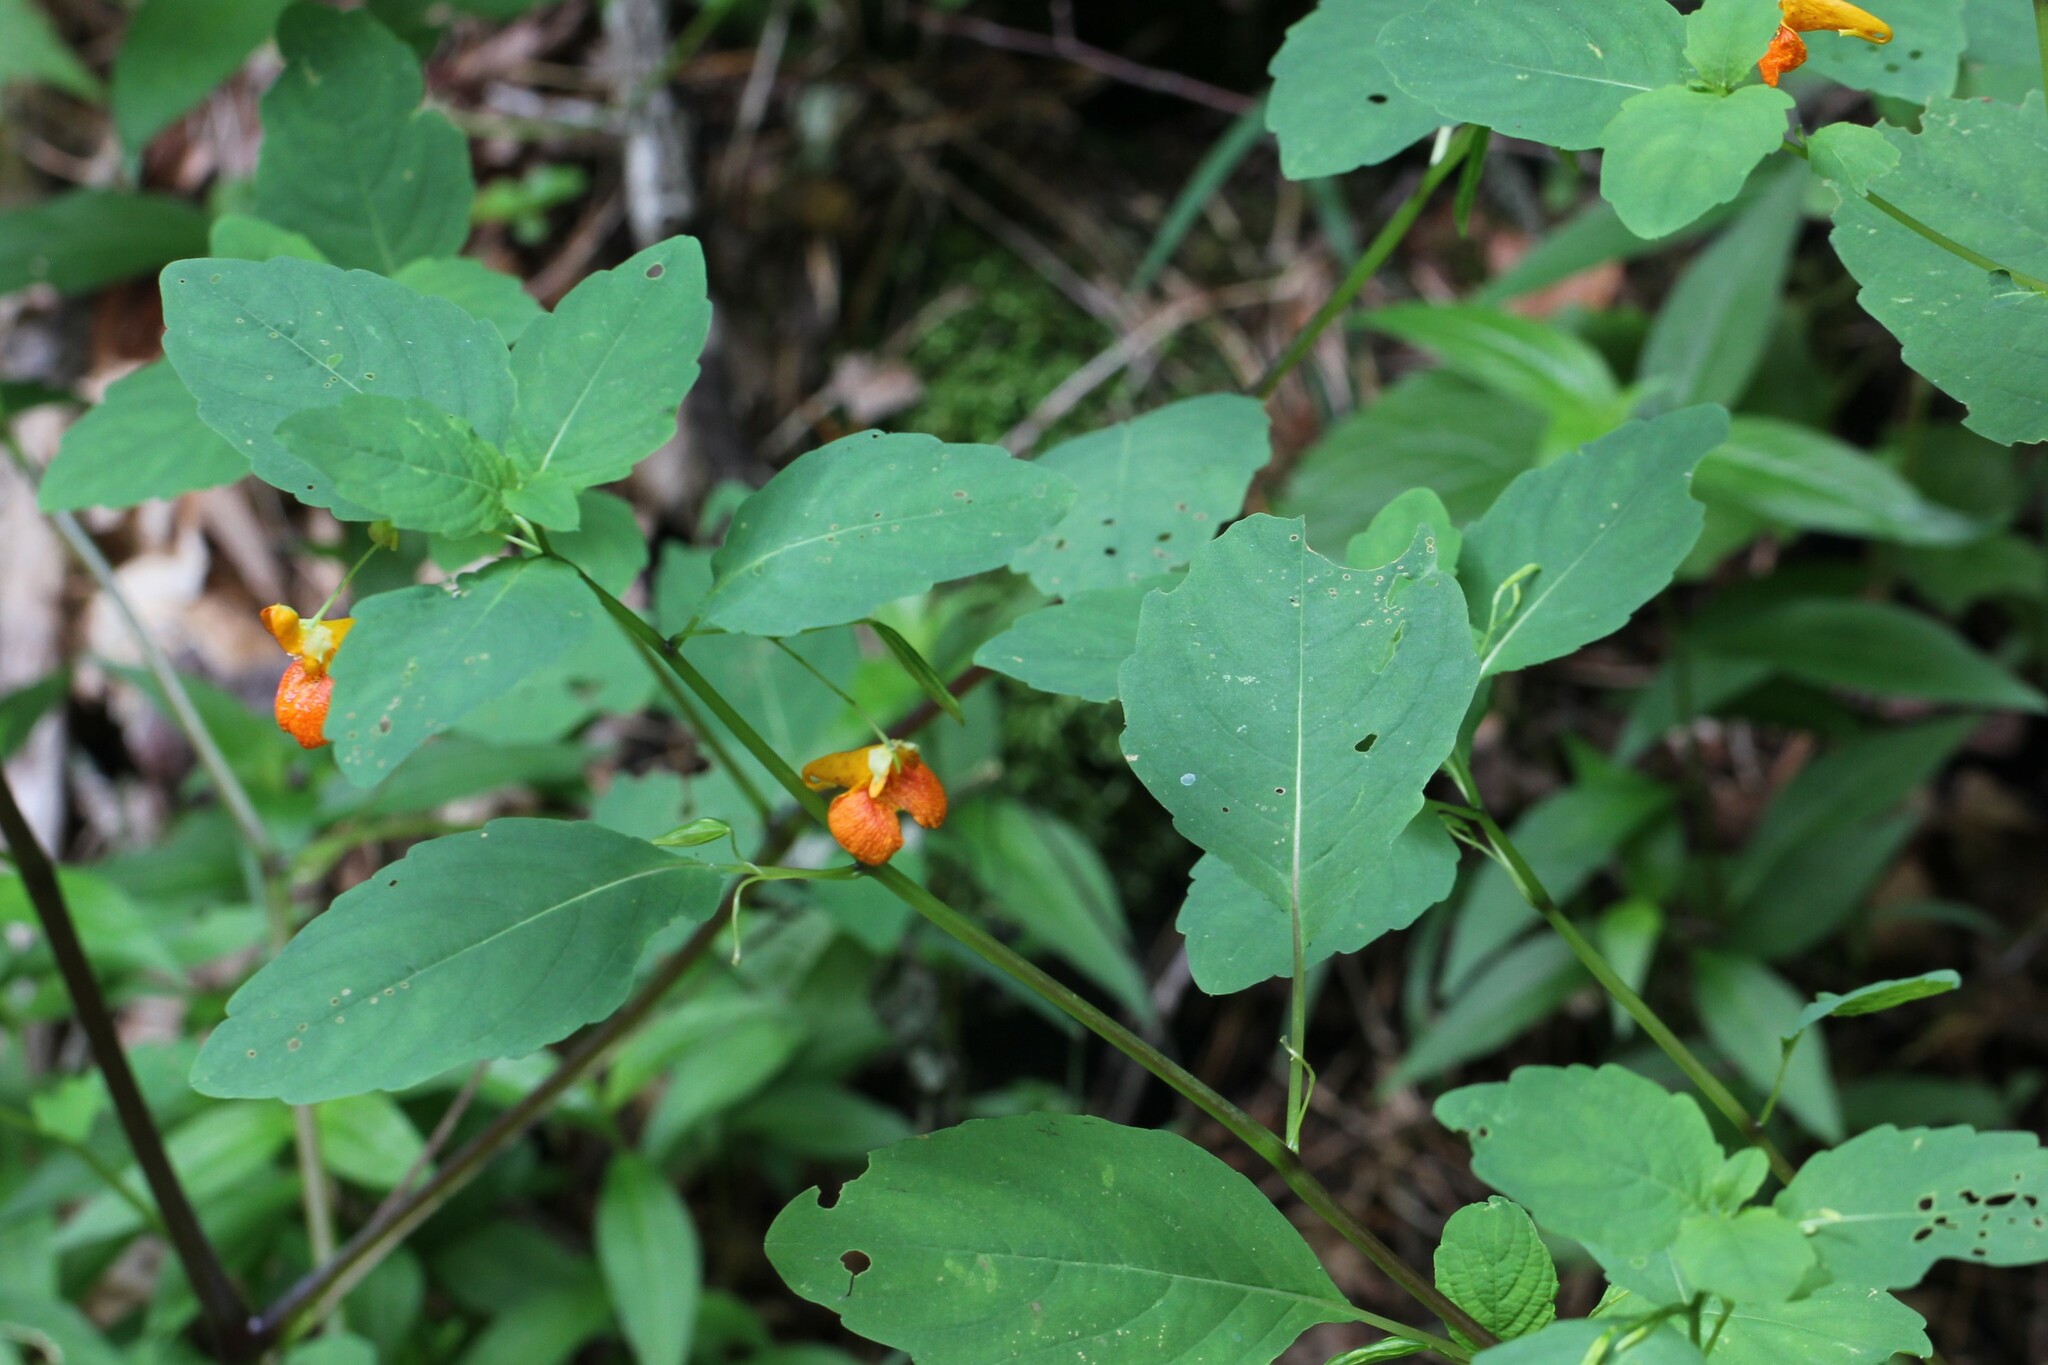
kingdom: Plantae
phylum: Tracheophyta
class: Magnoliopsida
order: Ericales
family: Balsaminaceae
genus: Impatiens
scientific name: Impatiens capensis
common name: Orange balsam
